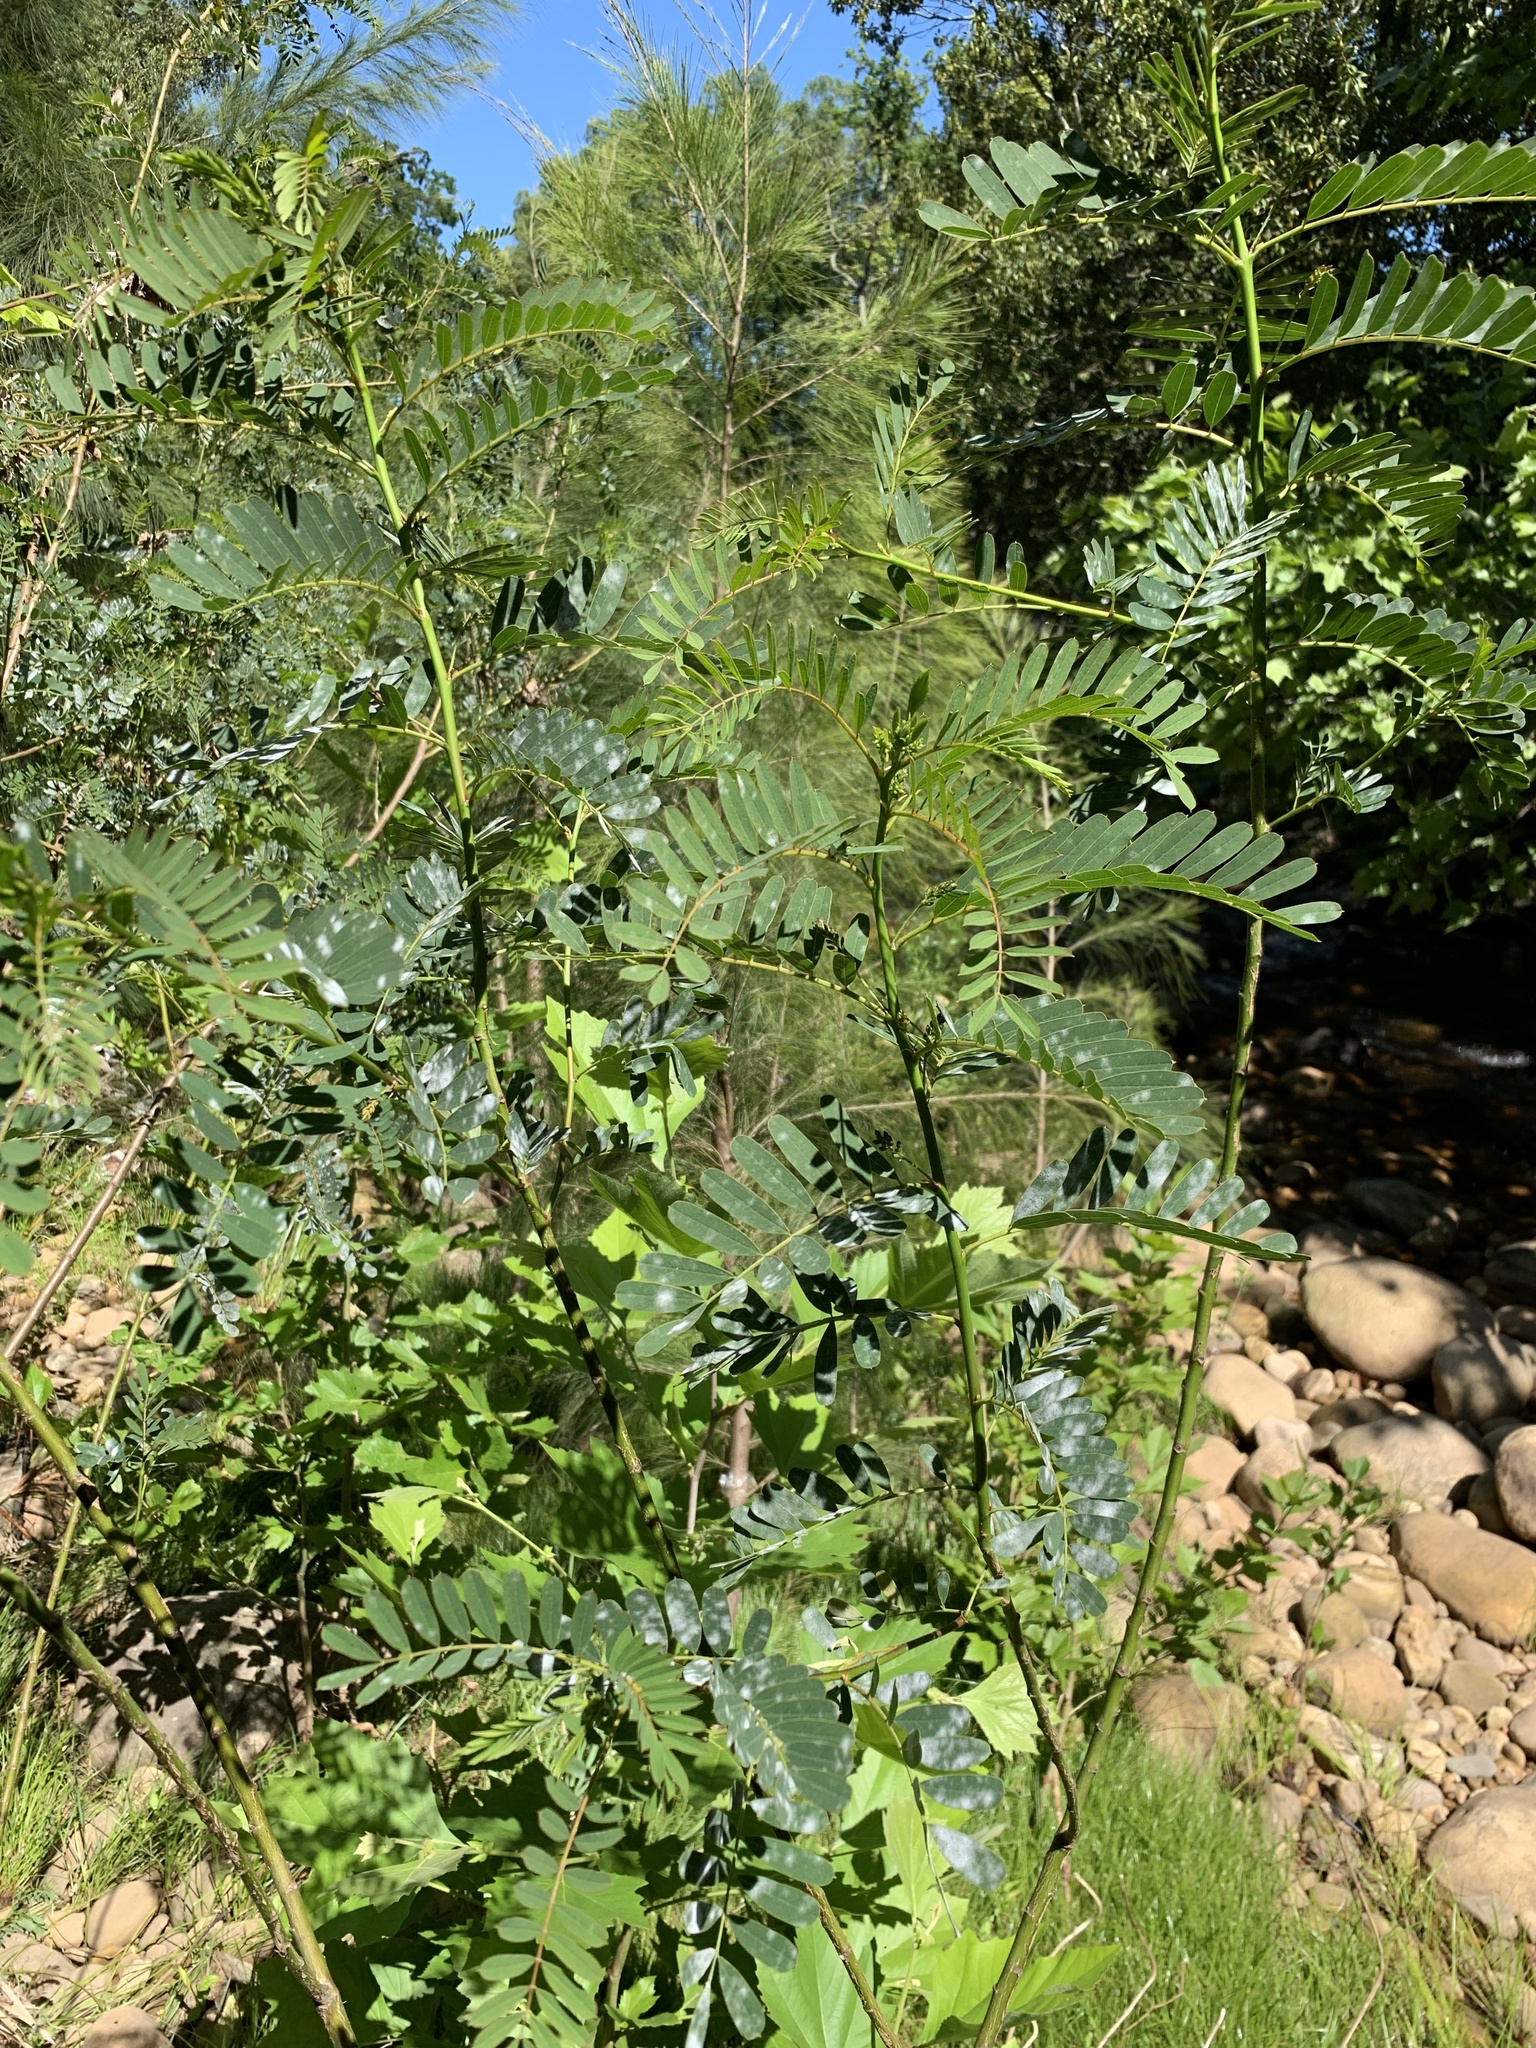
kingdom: Plantae
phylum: Tracheophyta
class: Magnoliopsida
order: Fabales
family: Fabaceae
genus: Sesbania
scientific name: Sesbania punicea
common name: Rattlebox
